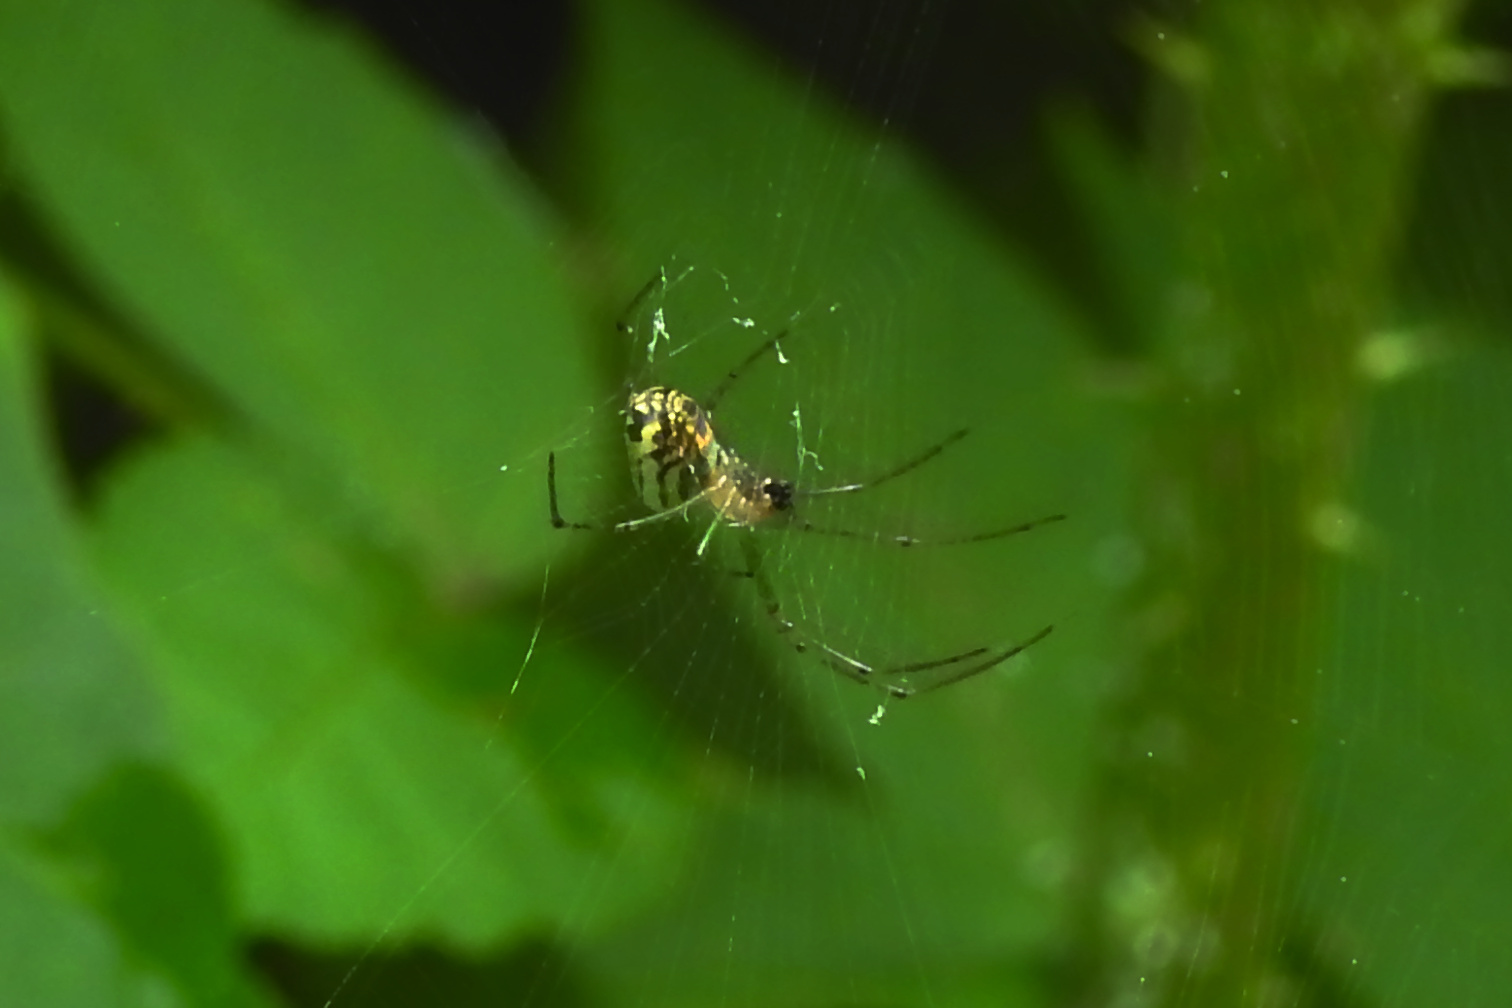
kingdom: Animalia
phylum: Arthropoda
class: Arachnida
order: Araneae
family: Tetragnathidae
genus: Leucauge
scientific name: Leucauge venusta
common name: Longjawed orb weavers
